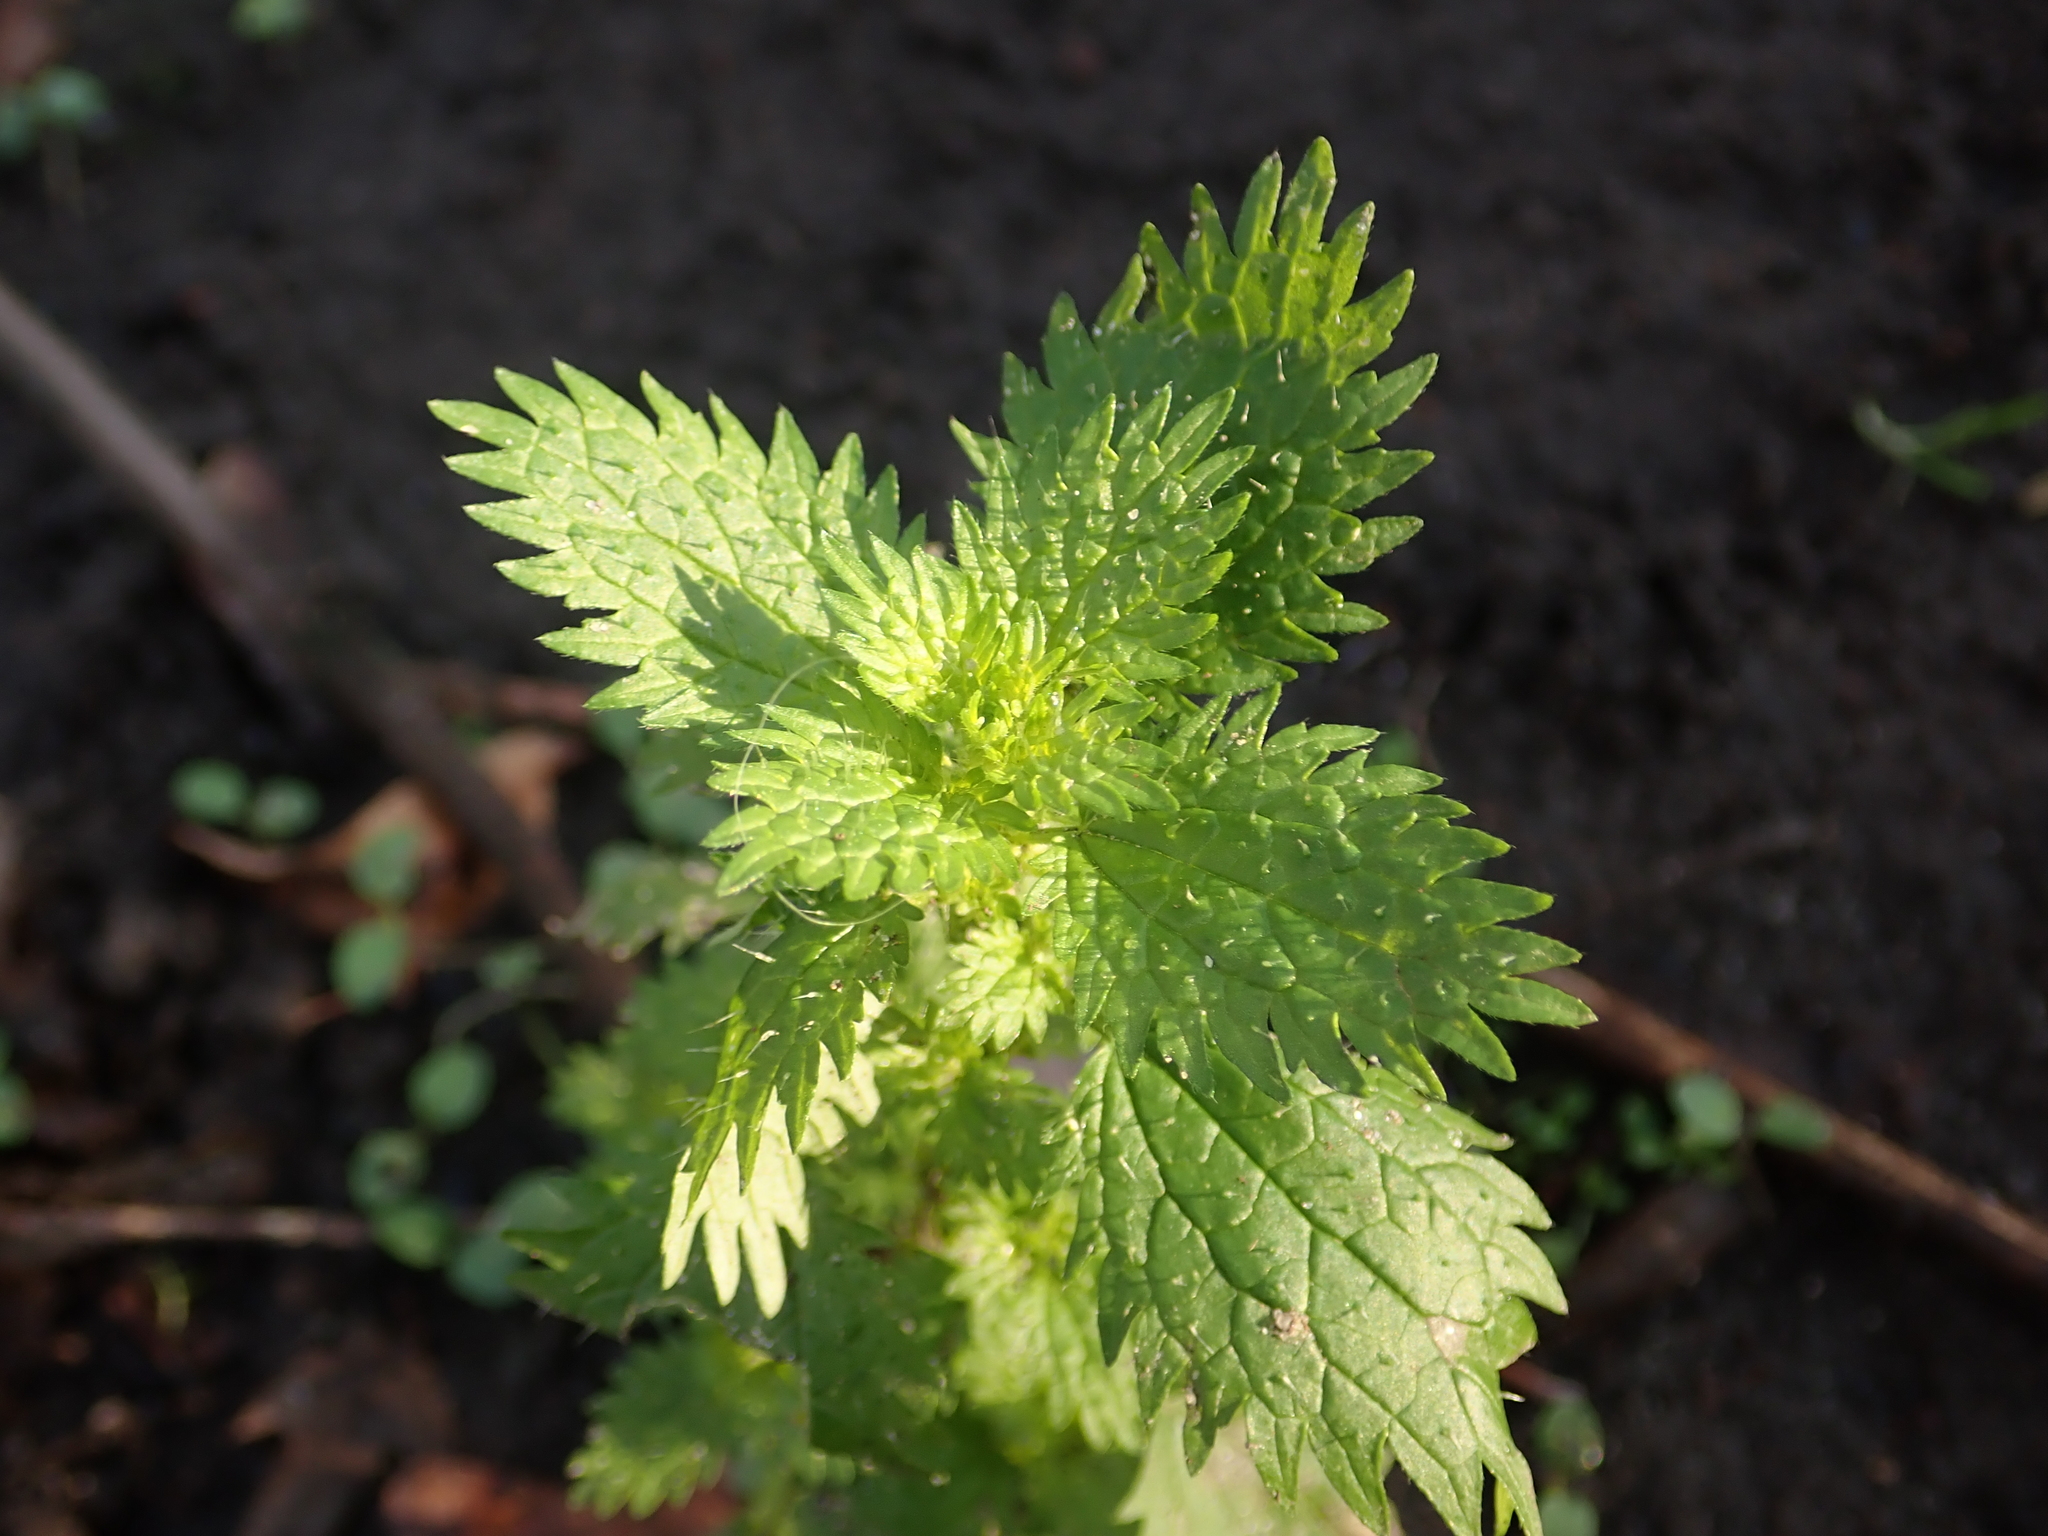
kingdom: Plantae
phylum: Tracheophyta
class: Magnoliopsida
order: Rosales
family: Urticaceae
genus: Urtica
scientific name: Urtica urens
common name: Dwarf nettle
